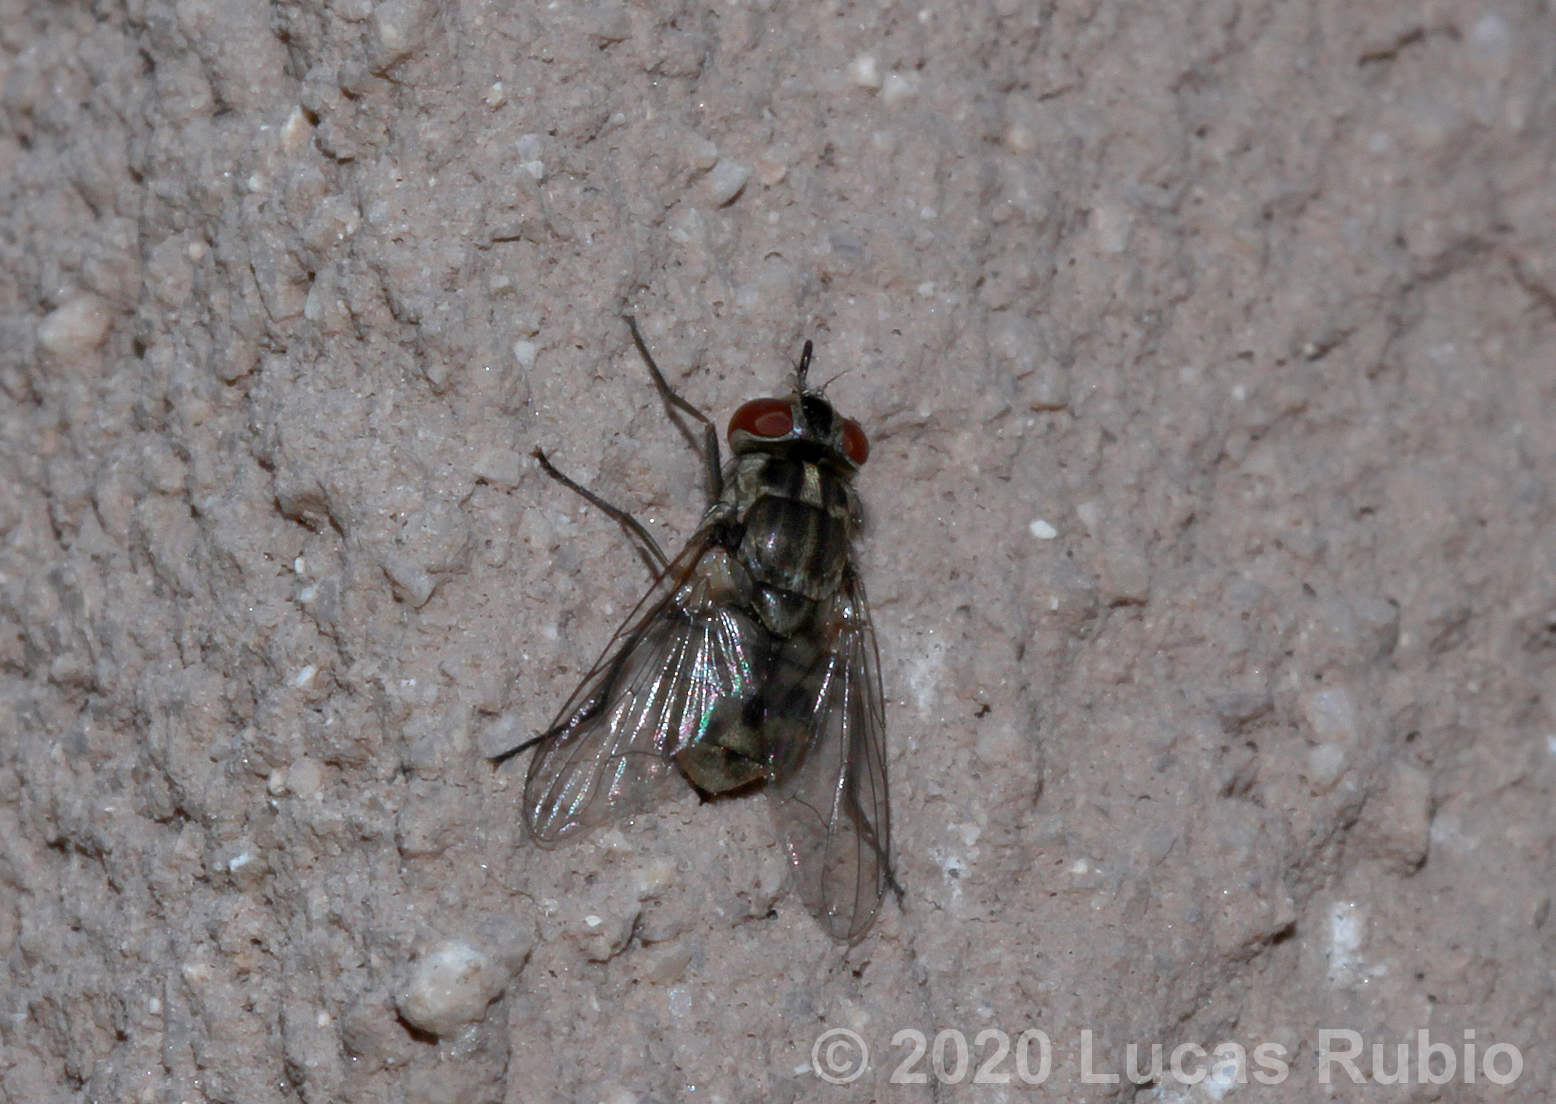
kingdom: Animalia
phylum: Arthropoda
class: Insecta
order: Diptera
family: Muscidae
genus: Stomoxys
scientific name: Stomoxys calcitrans
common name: Stable fly
